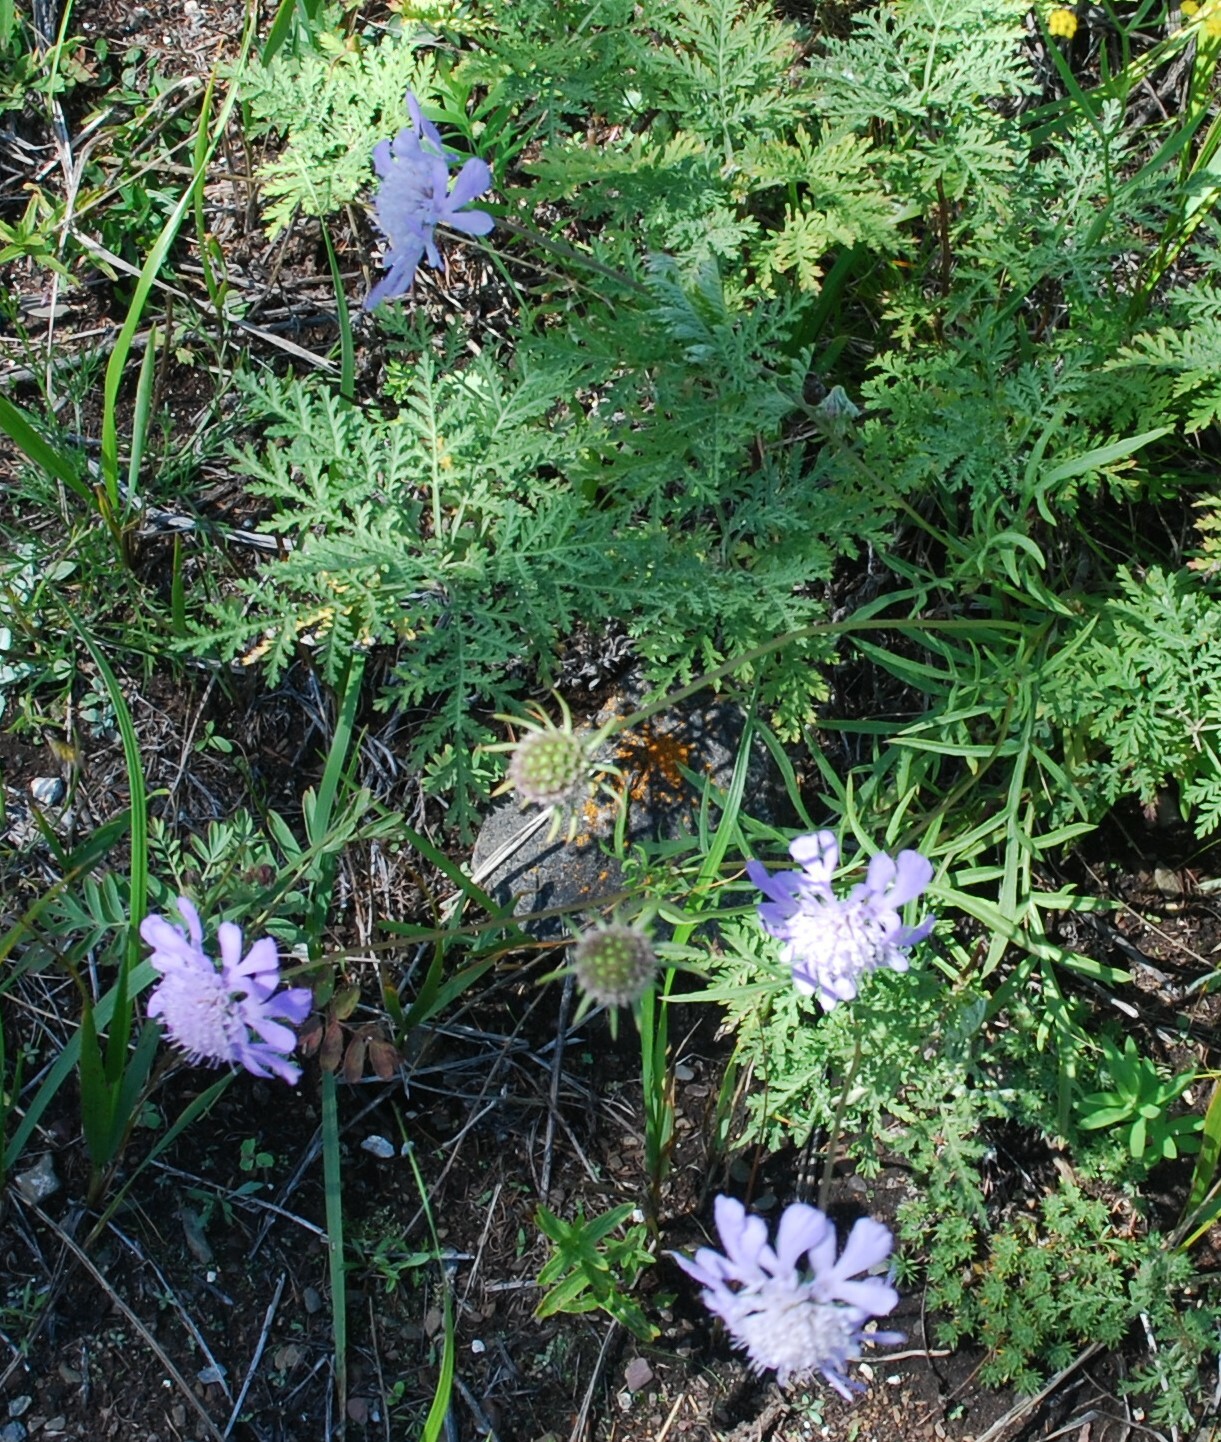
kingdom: Plantae
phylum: Tracheophyta
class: Magnoliopsida
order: Dipsacales
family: Caprifoliaceae
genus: Scabiosa
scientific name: Scabiosa comosa
